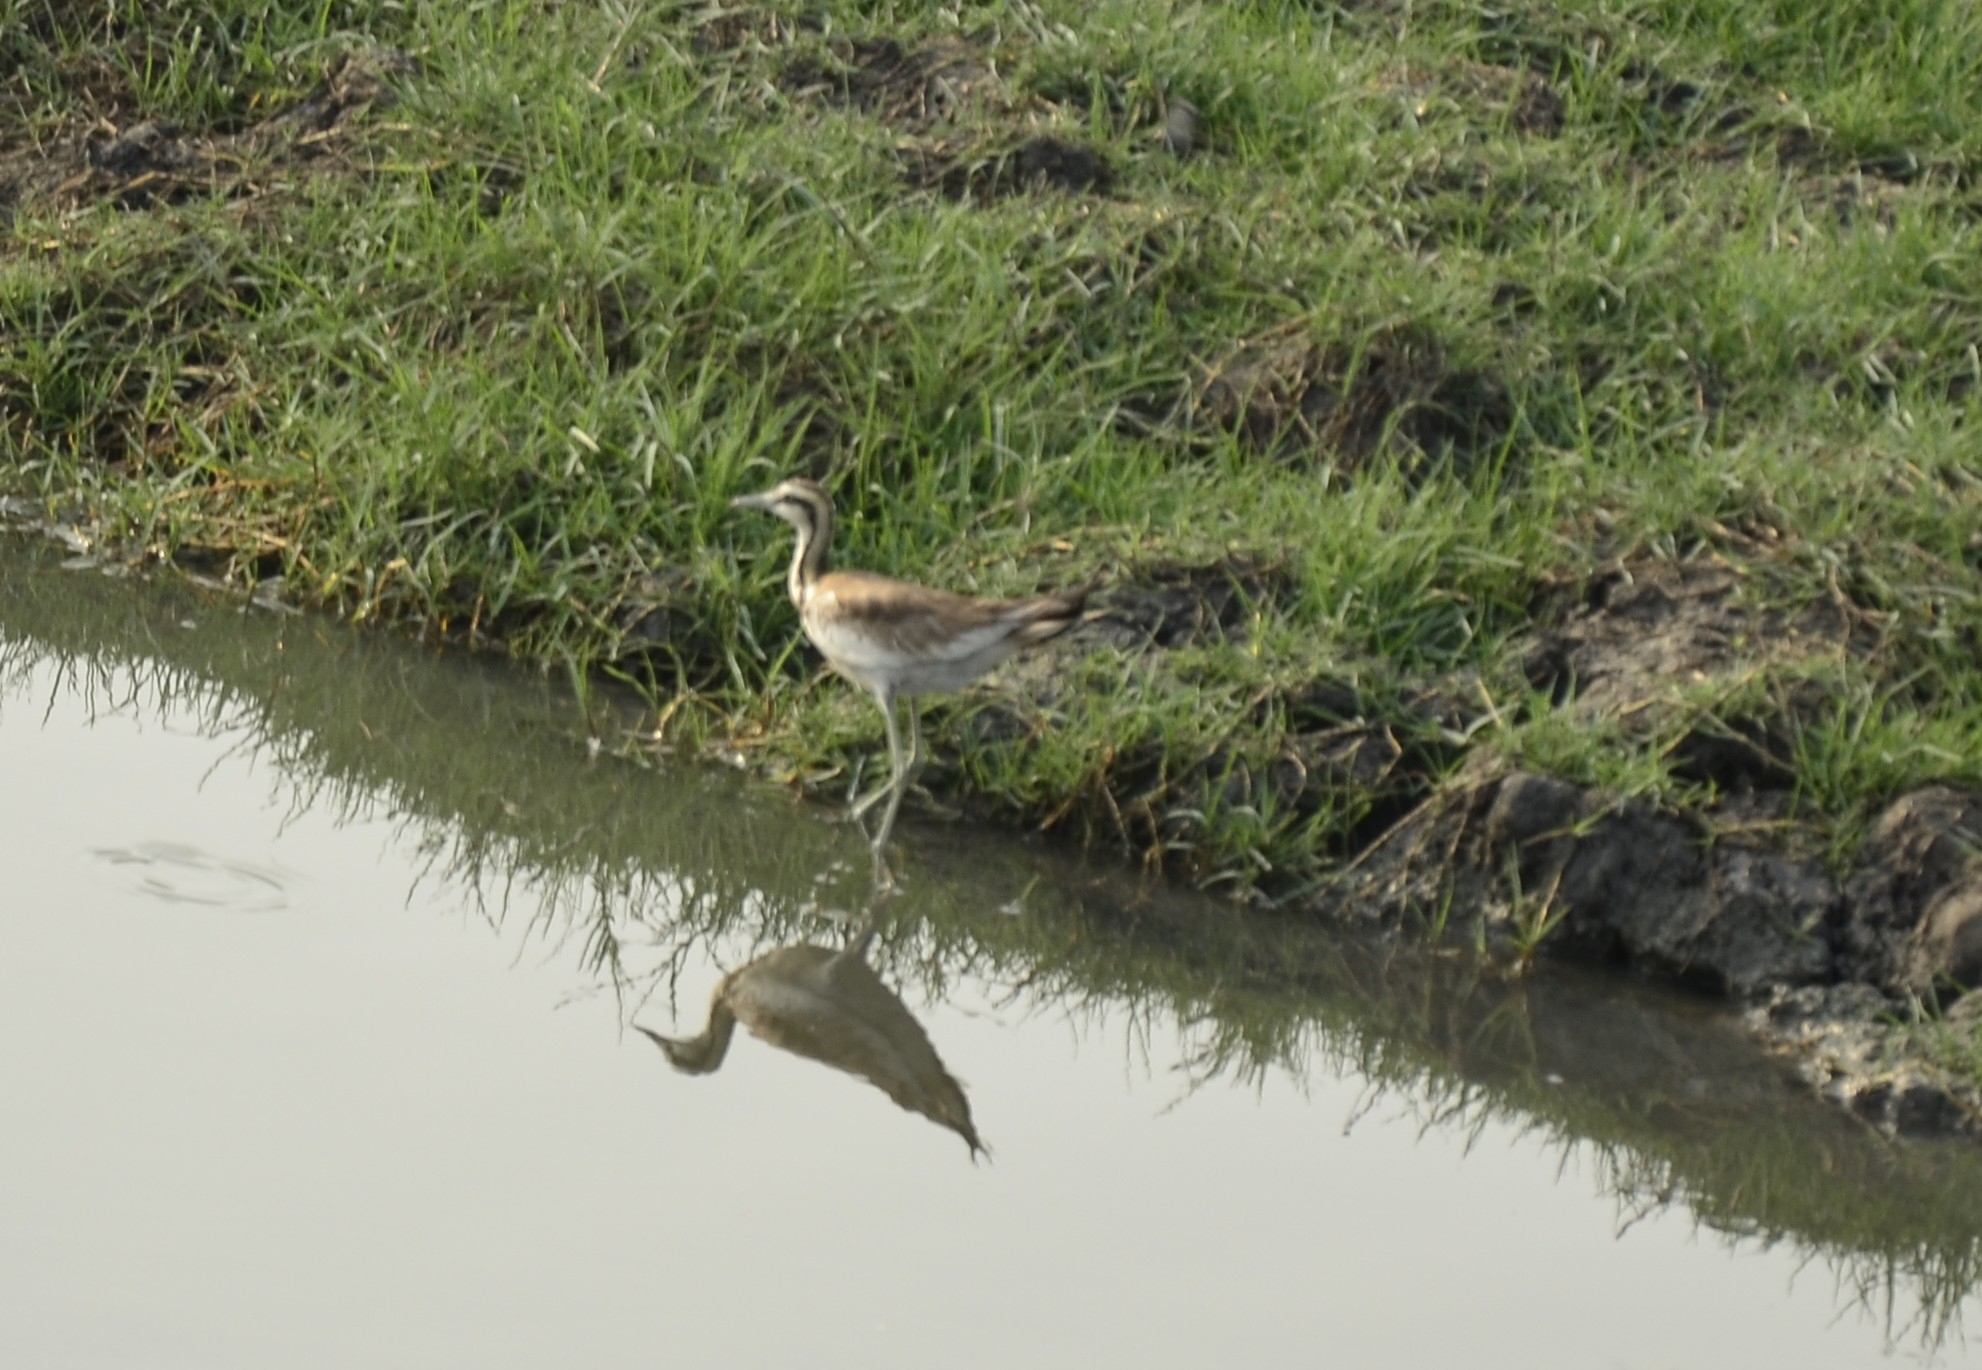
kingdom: Animalia
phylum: Chordata
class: Aves
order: Charadriiformes
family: Jacanidae
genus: Hydrophasianus
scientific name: Hydrophasianus chirurgus
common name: Pheasant-tailed jacana
